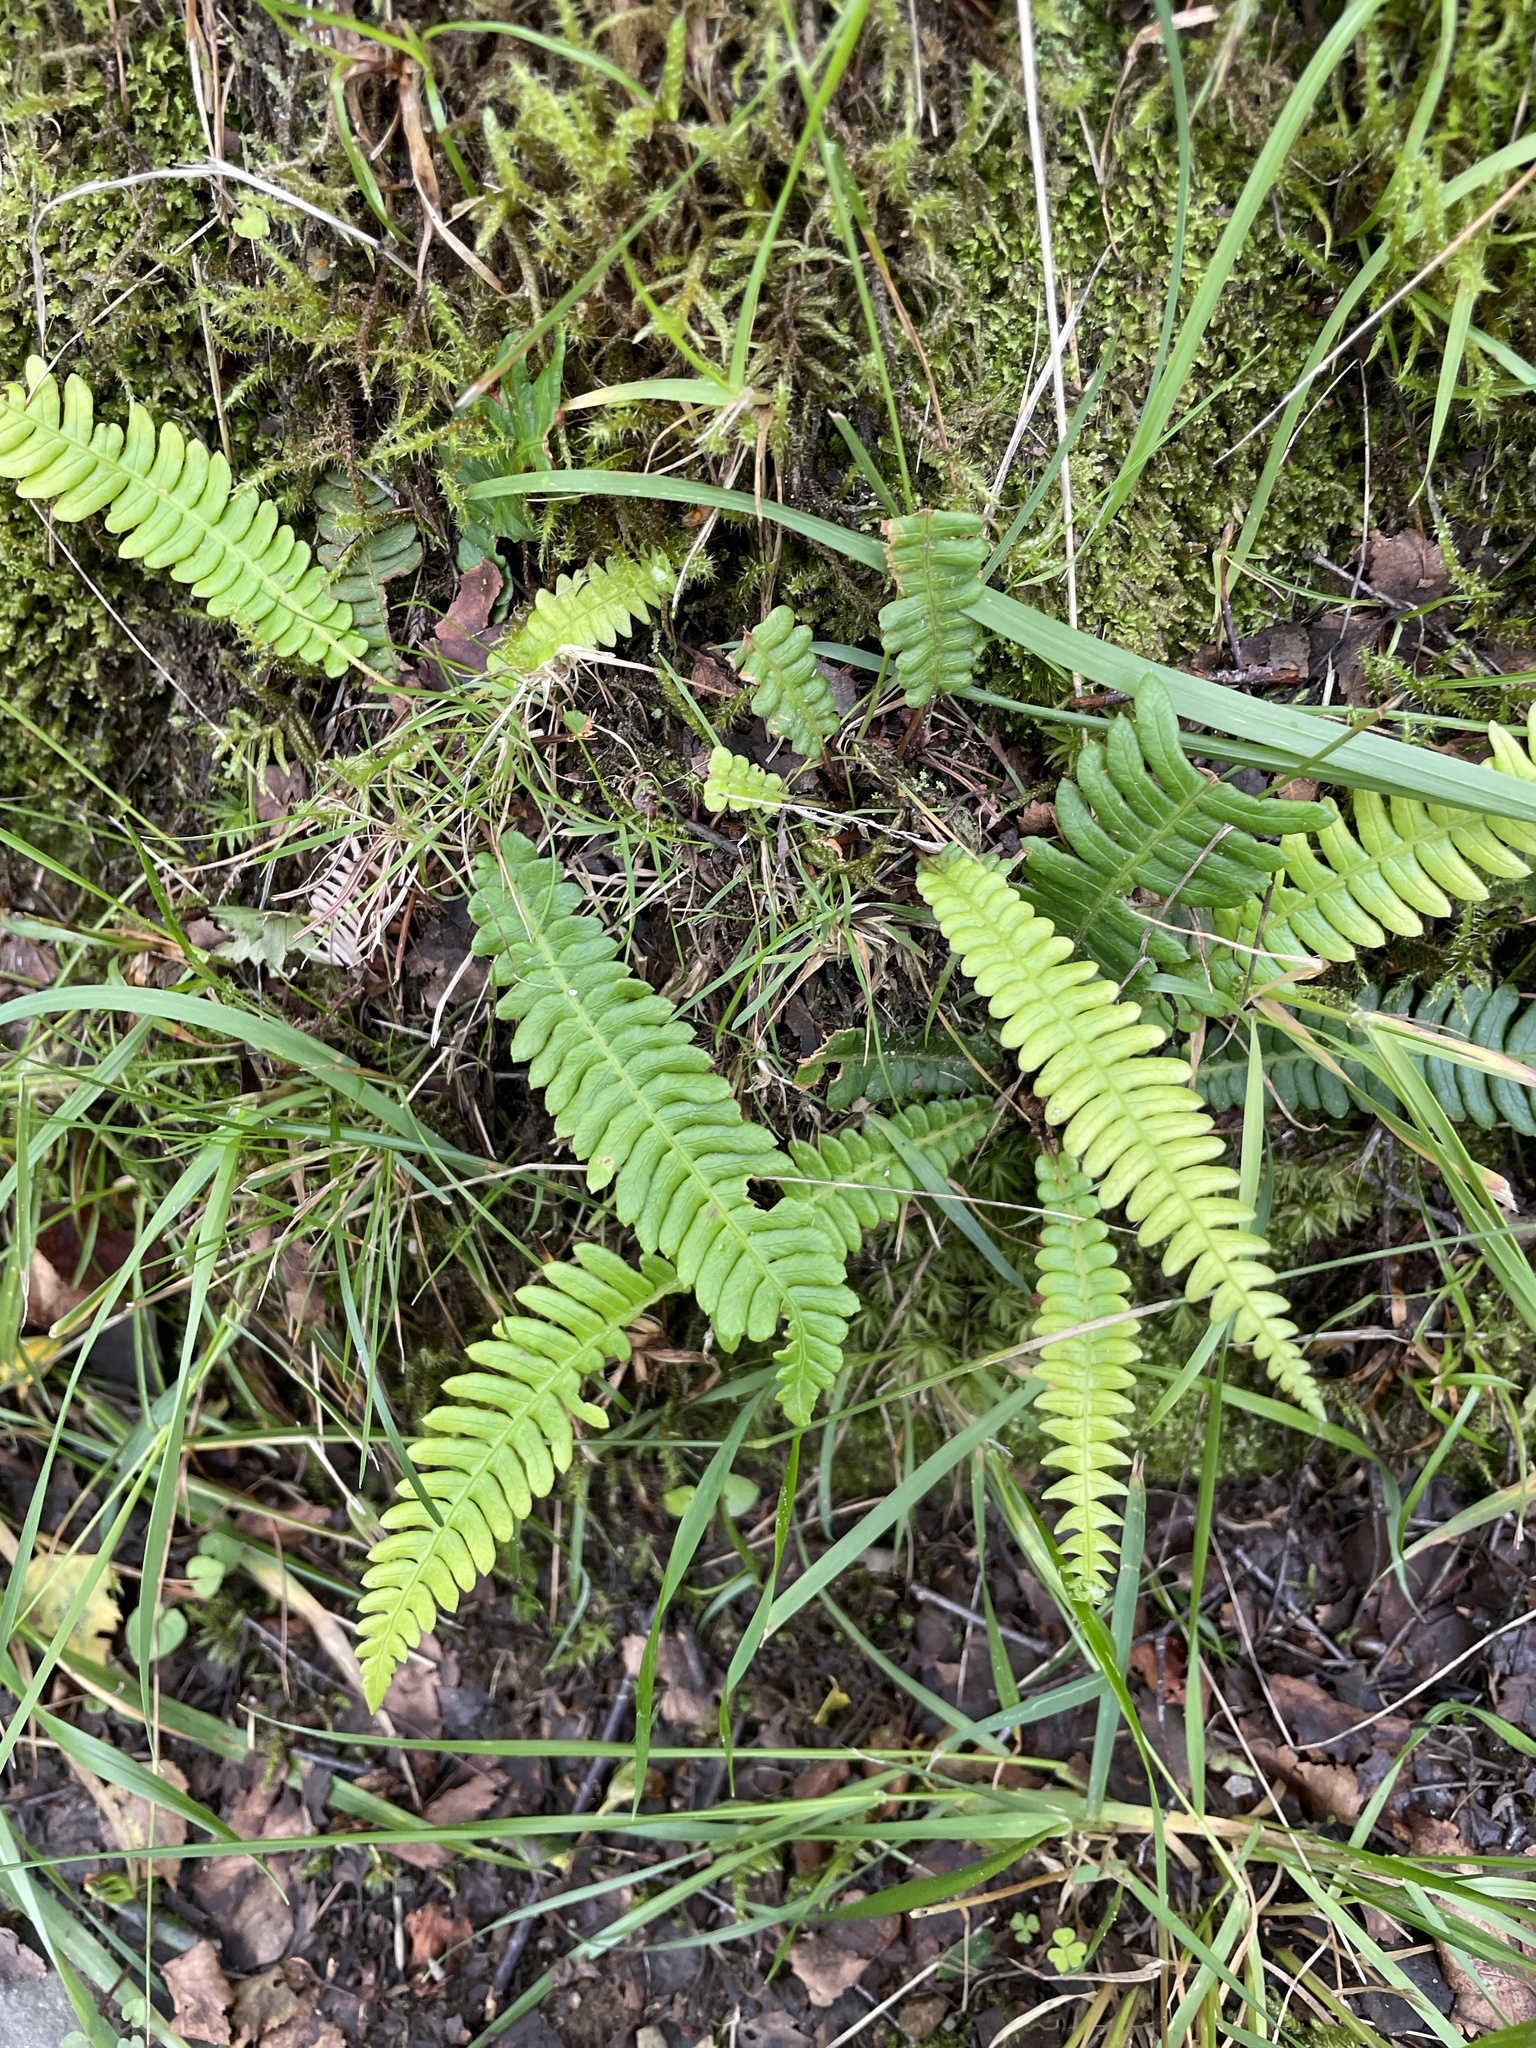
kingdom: Plantae
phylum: Tracheophyta
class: Polypodiopsida
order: Polypodiales
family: Blechnaceae
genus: Struthiopteris
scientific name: Struthiopteris spicant
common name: Deer fern
